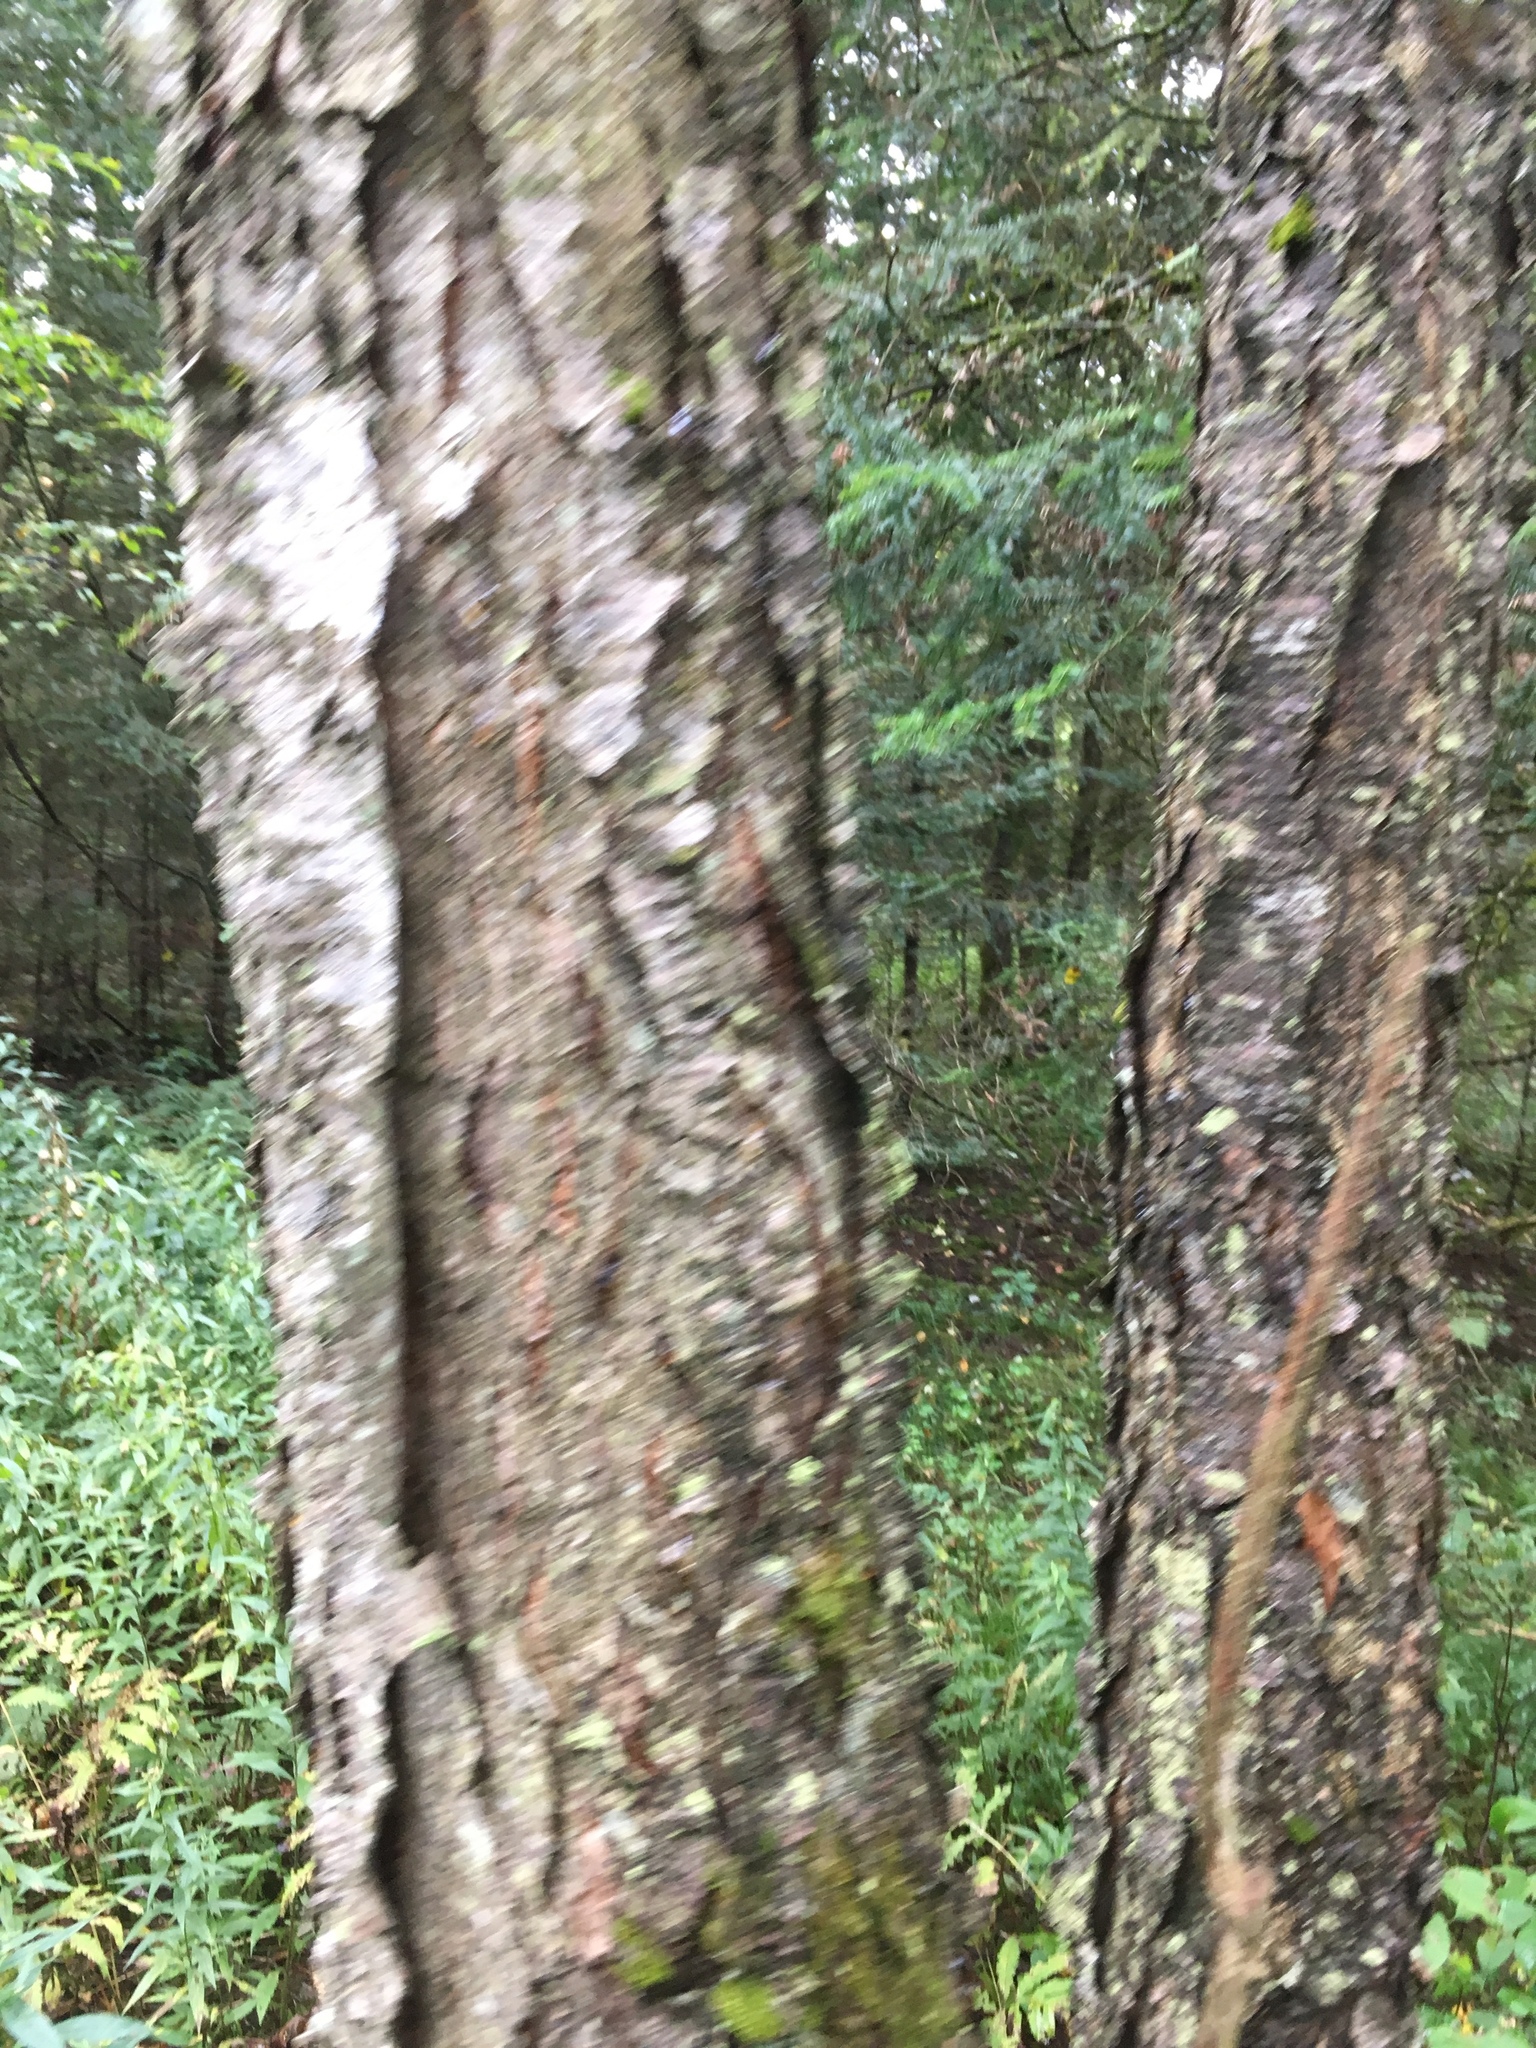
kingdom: Plantae
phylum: Tracheophyta
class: Magnoliopsida
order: Rosales
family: Rosaceae
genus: Prunus
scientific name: Prunus serotina
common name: Black cherry
